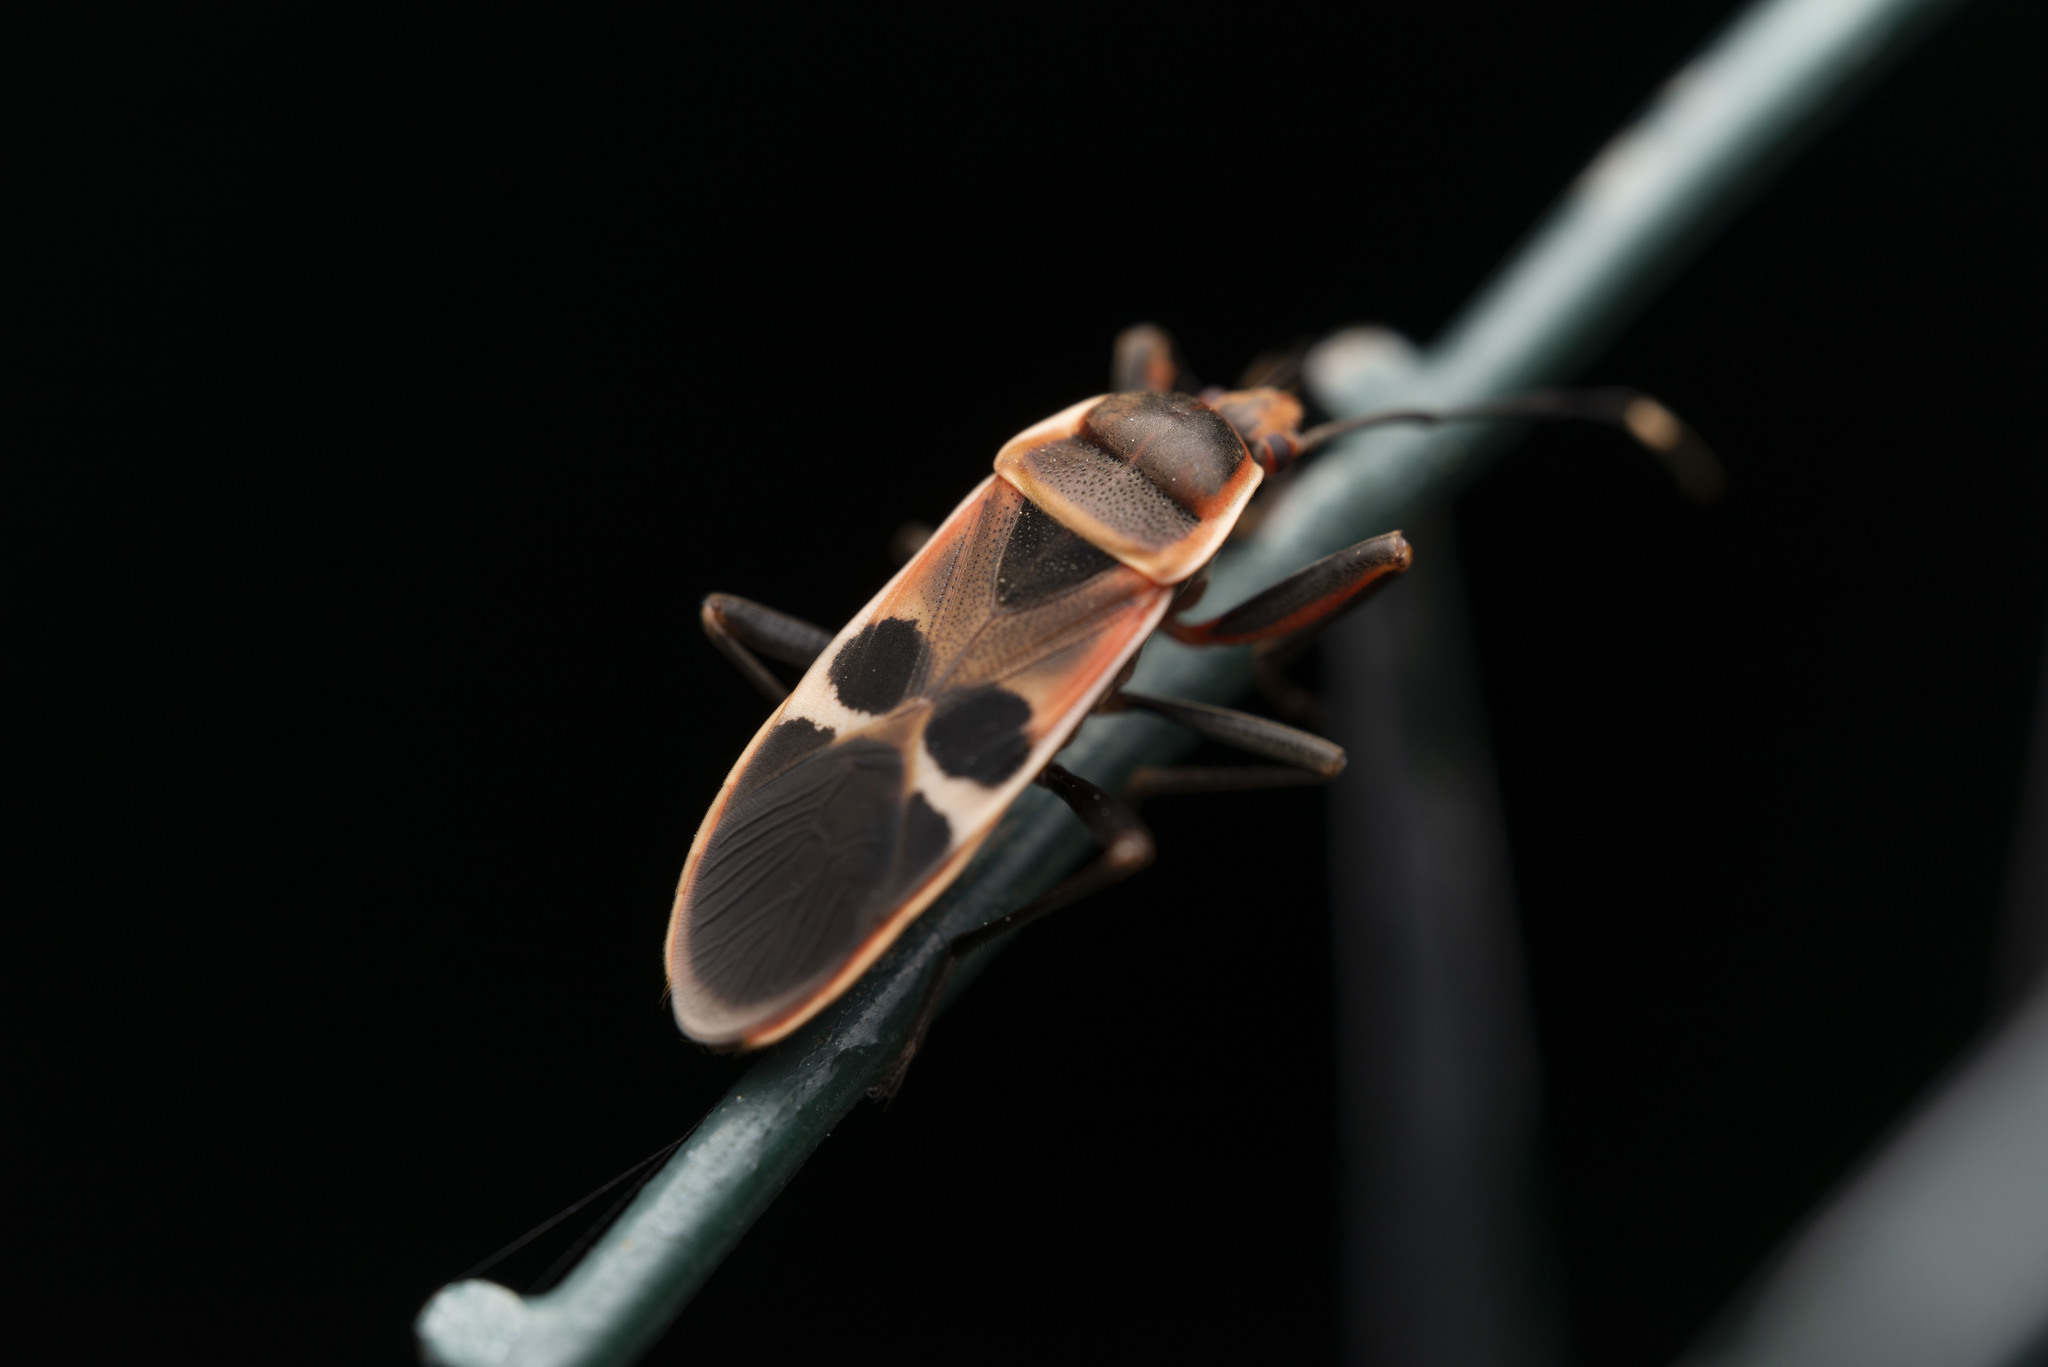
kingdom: Animalia
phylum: Arthropoda
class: Insecta
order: Hemiptera
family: Largidae
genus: Physopelta
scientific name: Physopelta gutta
